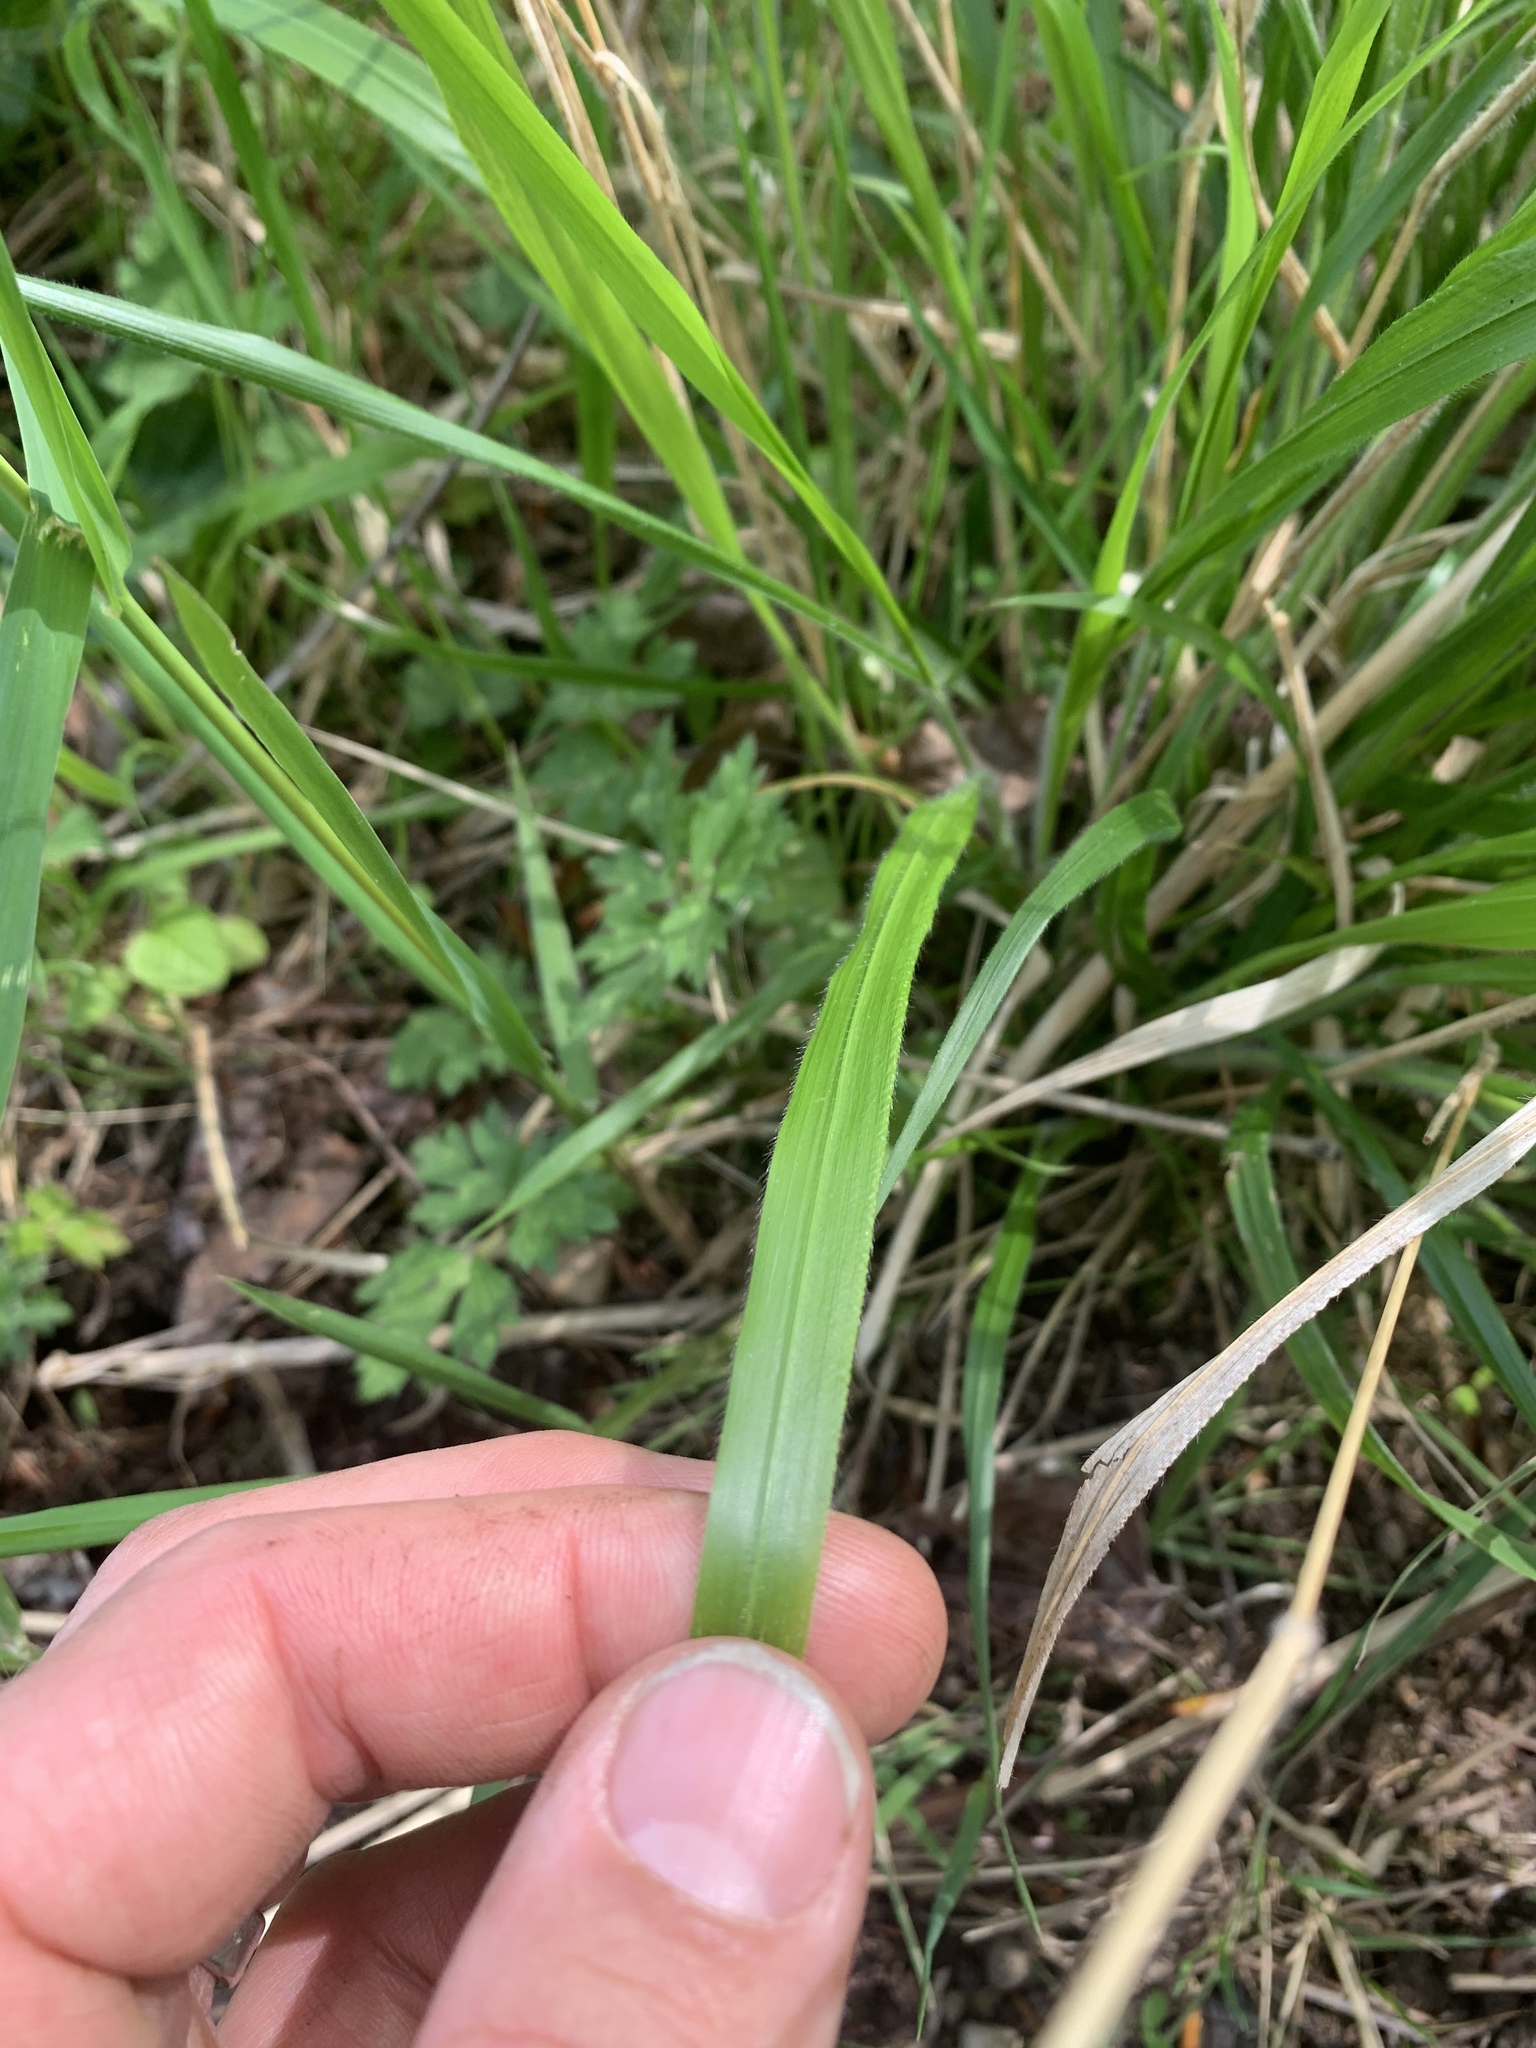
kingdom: Plantae
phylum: Tracheophyta
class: Liliopsida
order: Poales
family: Poaceae
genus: Brachypodium
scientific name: Brachypodium sylvaticum
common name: False-brome
